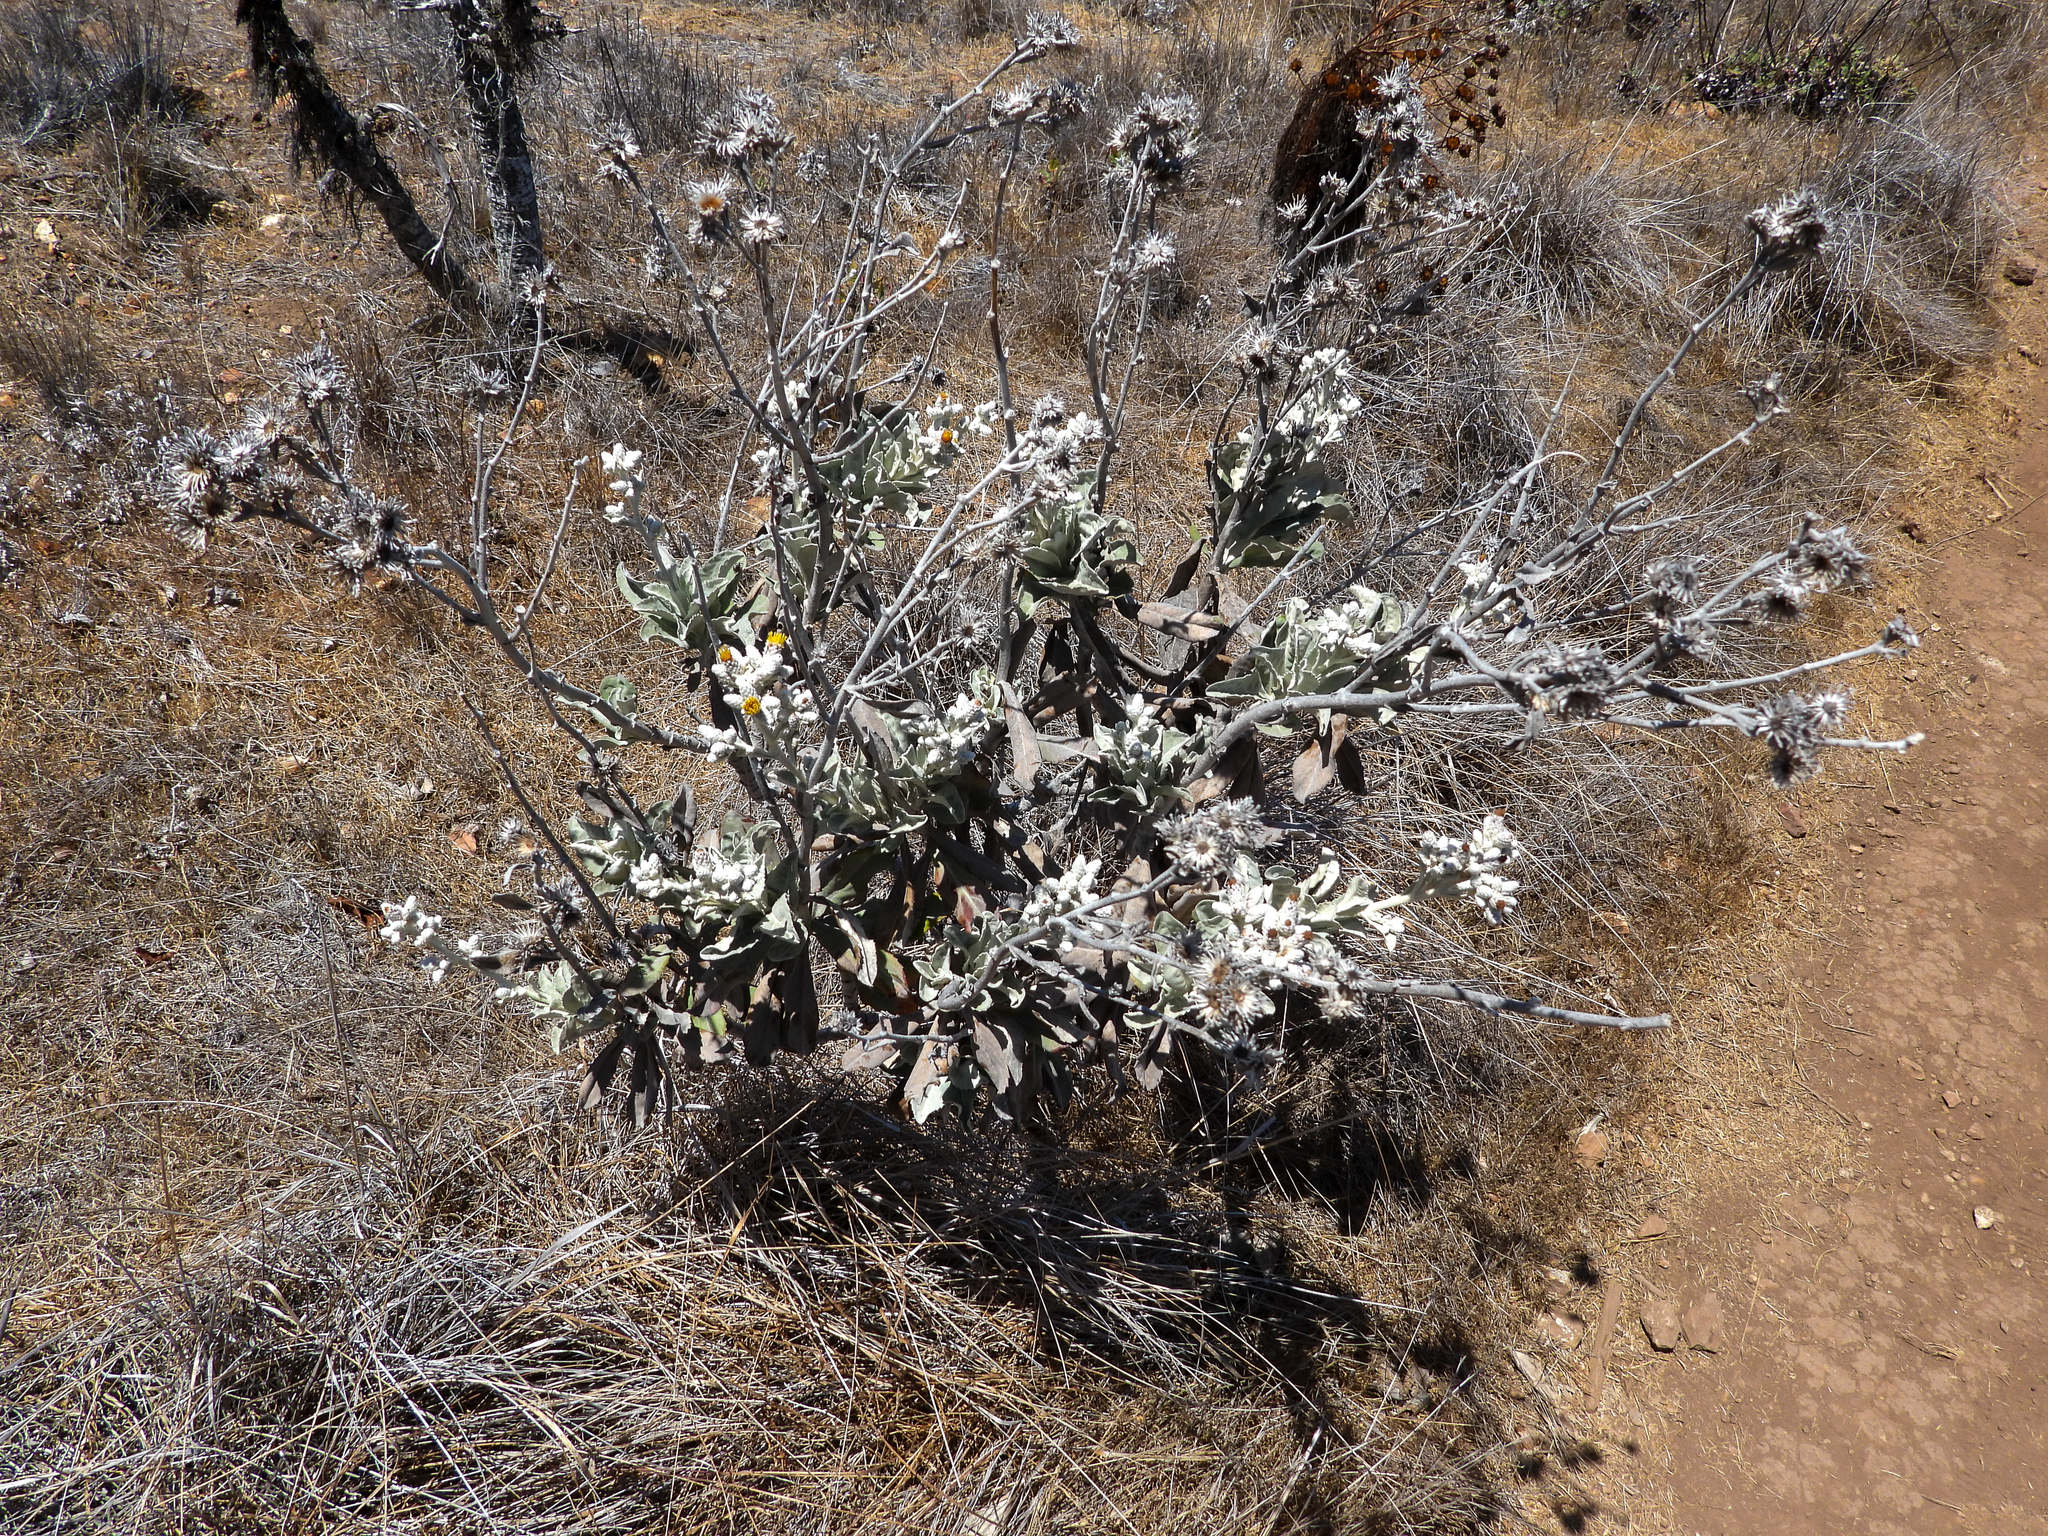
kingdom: Plantae
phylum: Tracheophyta
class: Magnoliopsida
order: Asterales
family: Asteraceae
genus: Hazardia
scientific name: Hazardia detonsa
